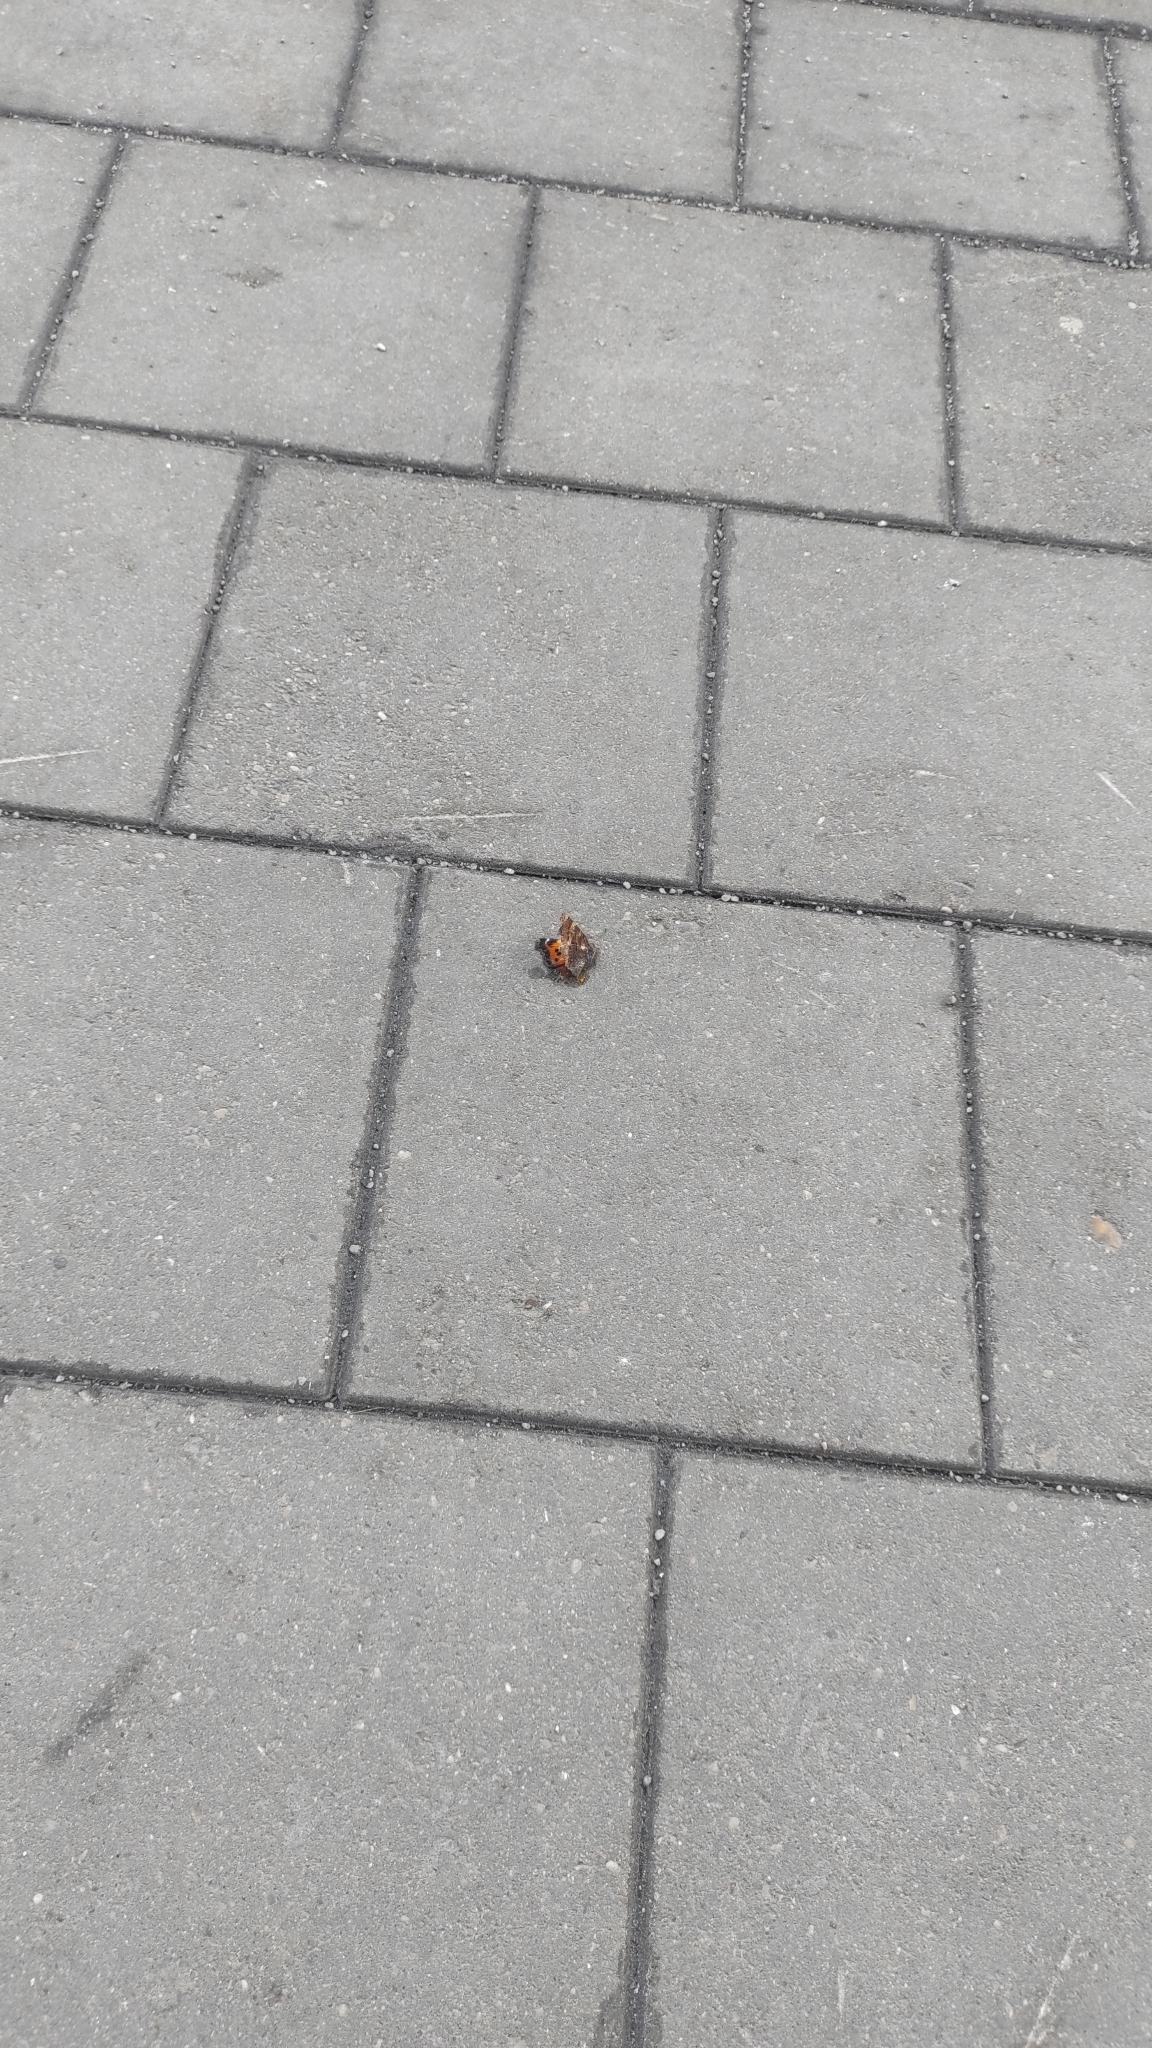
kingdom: Animalia
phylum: Arthropoda
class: Insecta
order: Lepidoptera
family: Nymphalidae
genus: Nymphalis
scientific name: Nymphalis xanthomelas
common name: Scarce tortoiseshell
